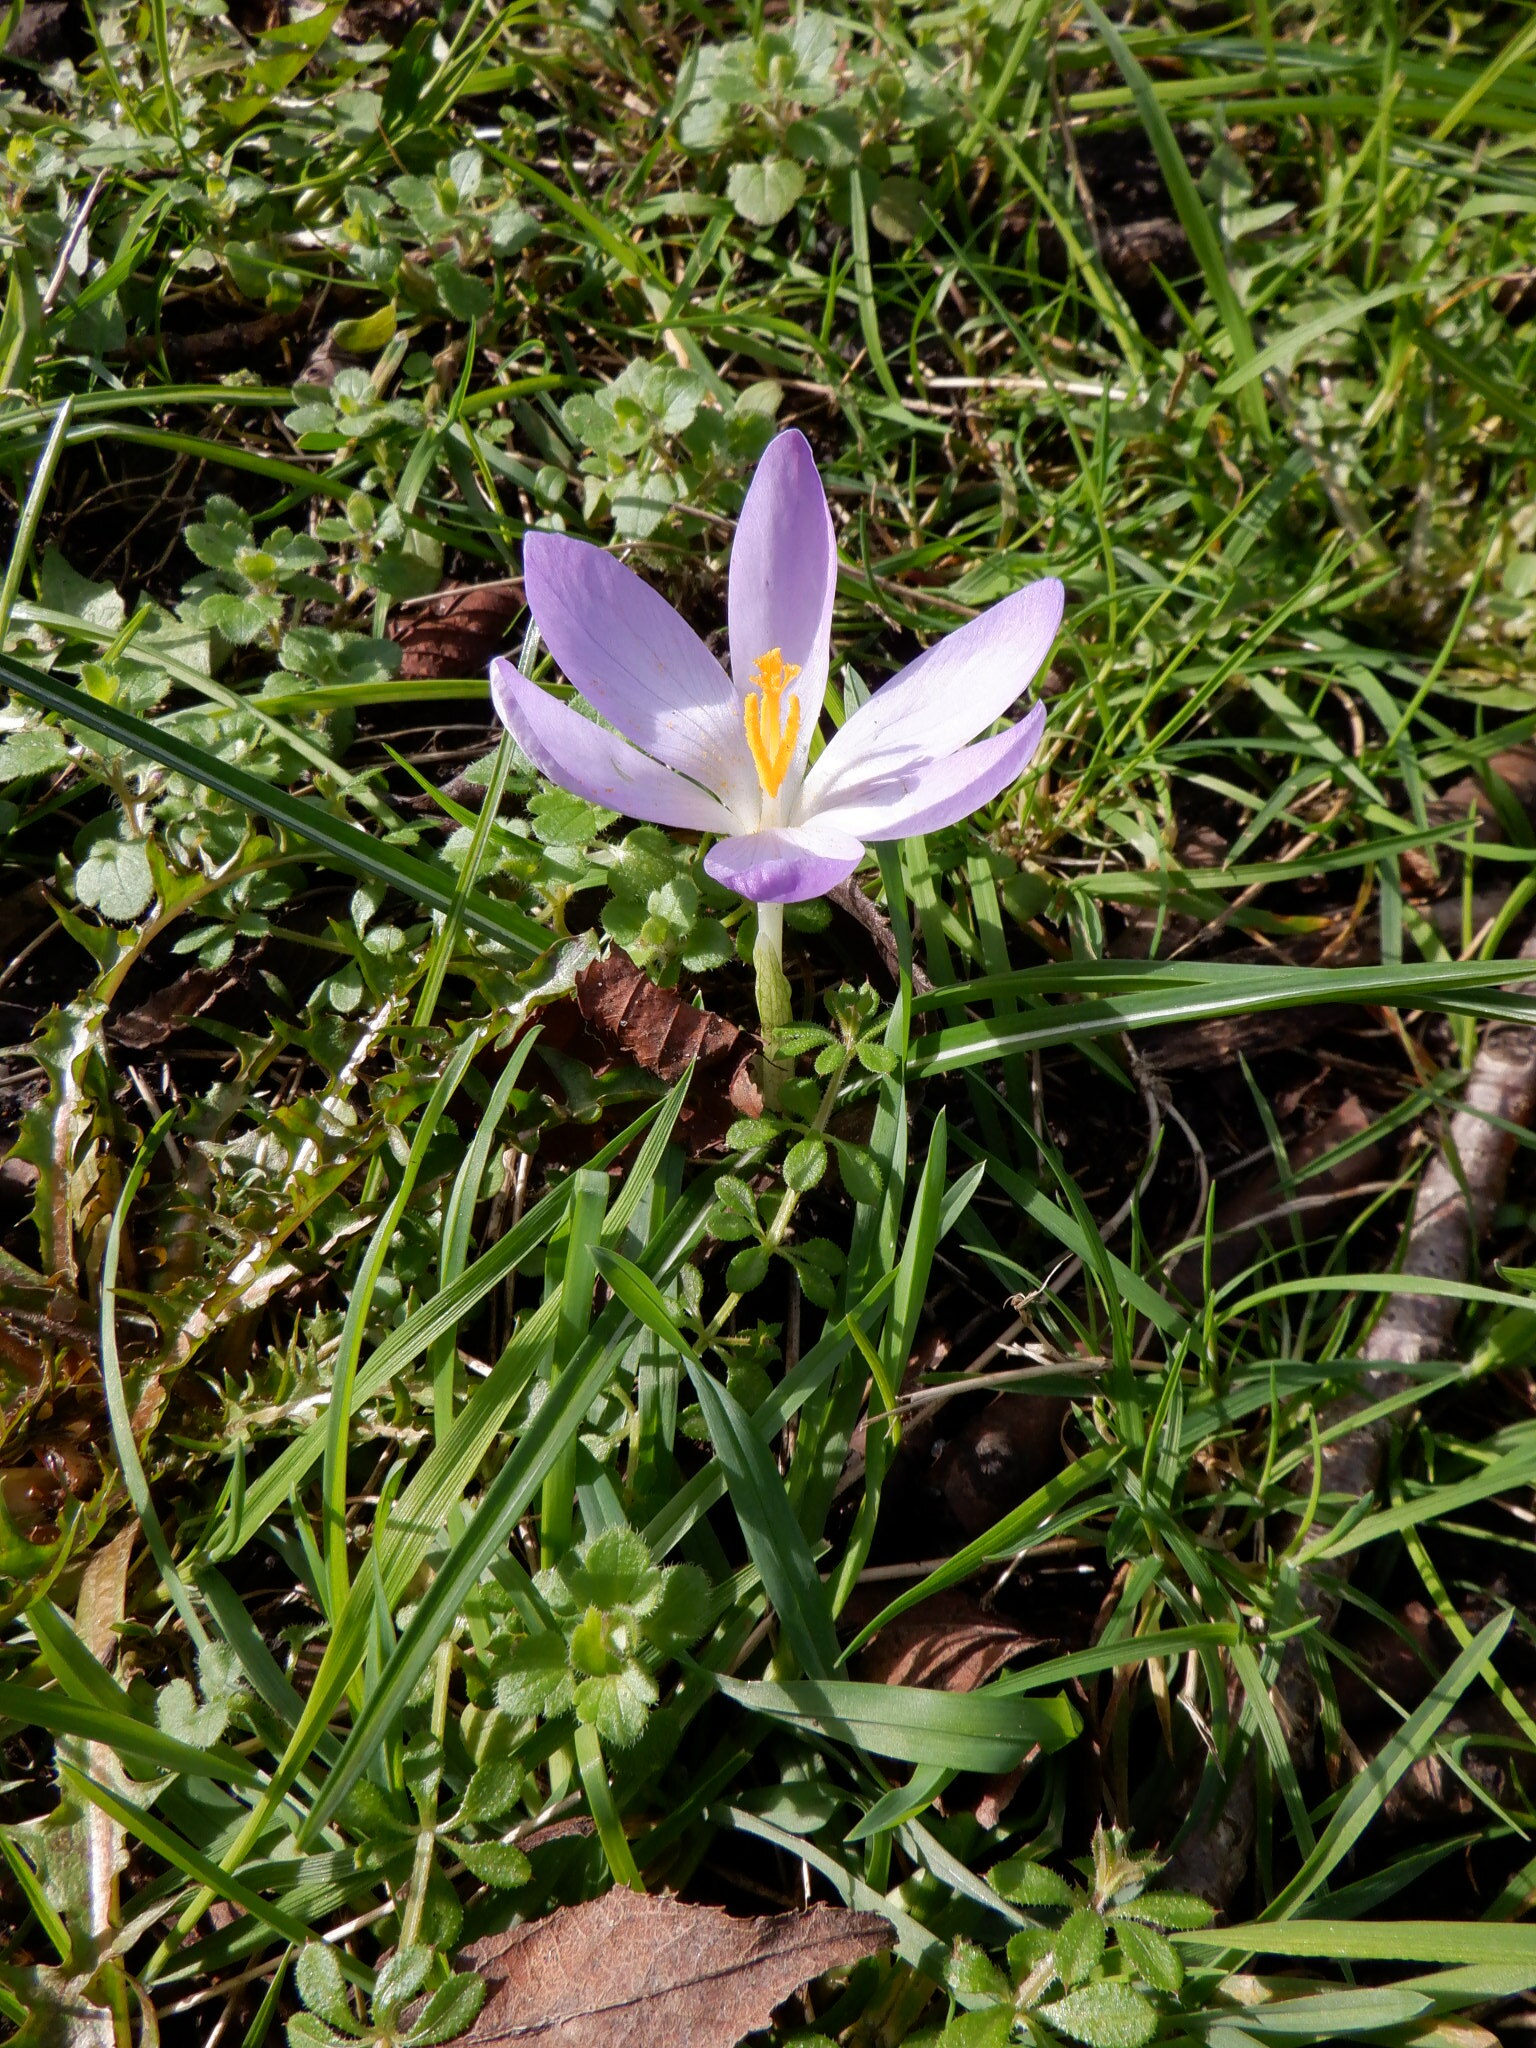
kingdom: Plantae
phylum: Tracheophyta
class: Liliopsida
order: Asparagales
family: Iridaceae
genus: Crocus
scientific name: Crocus tommasinianus
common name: Early crocus
